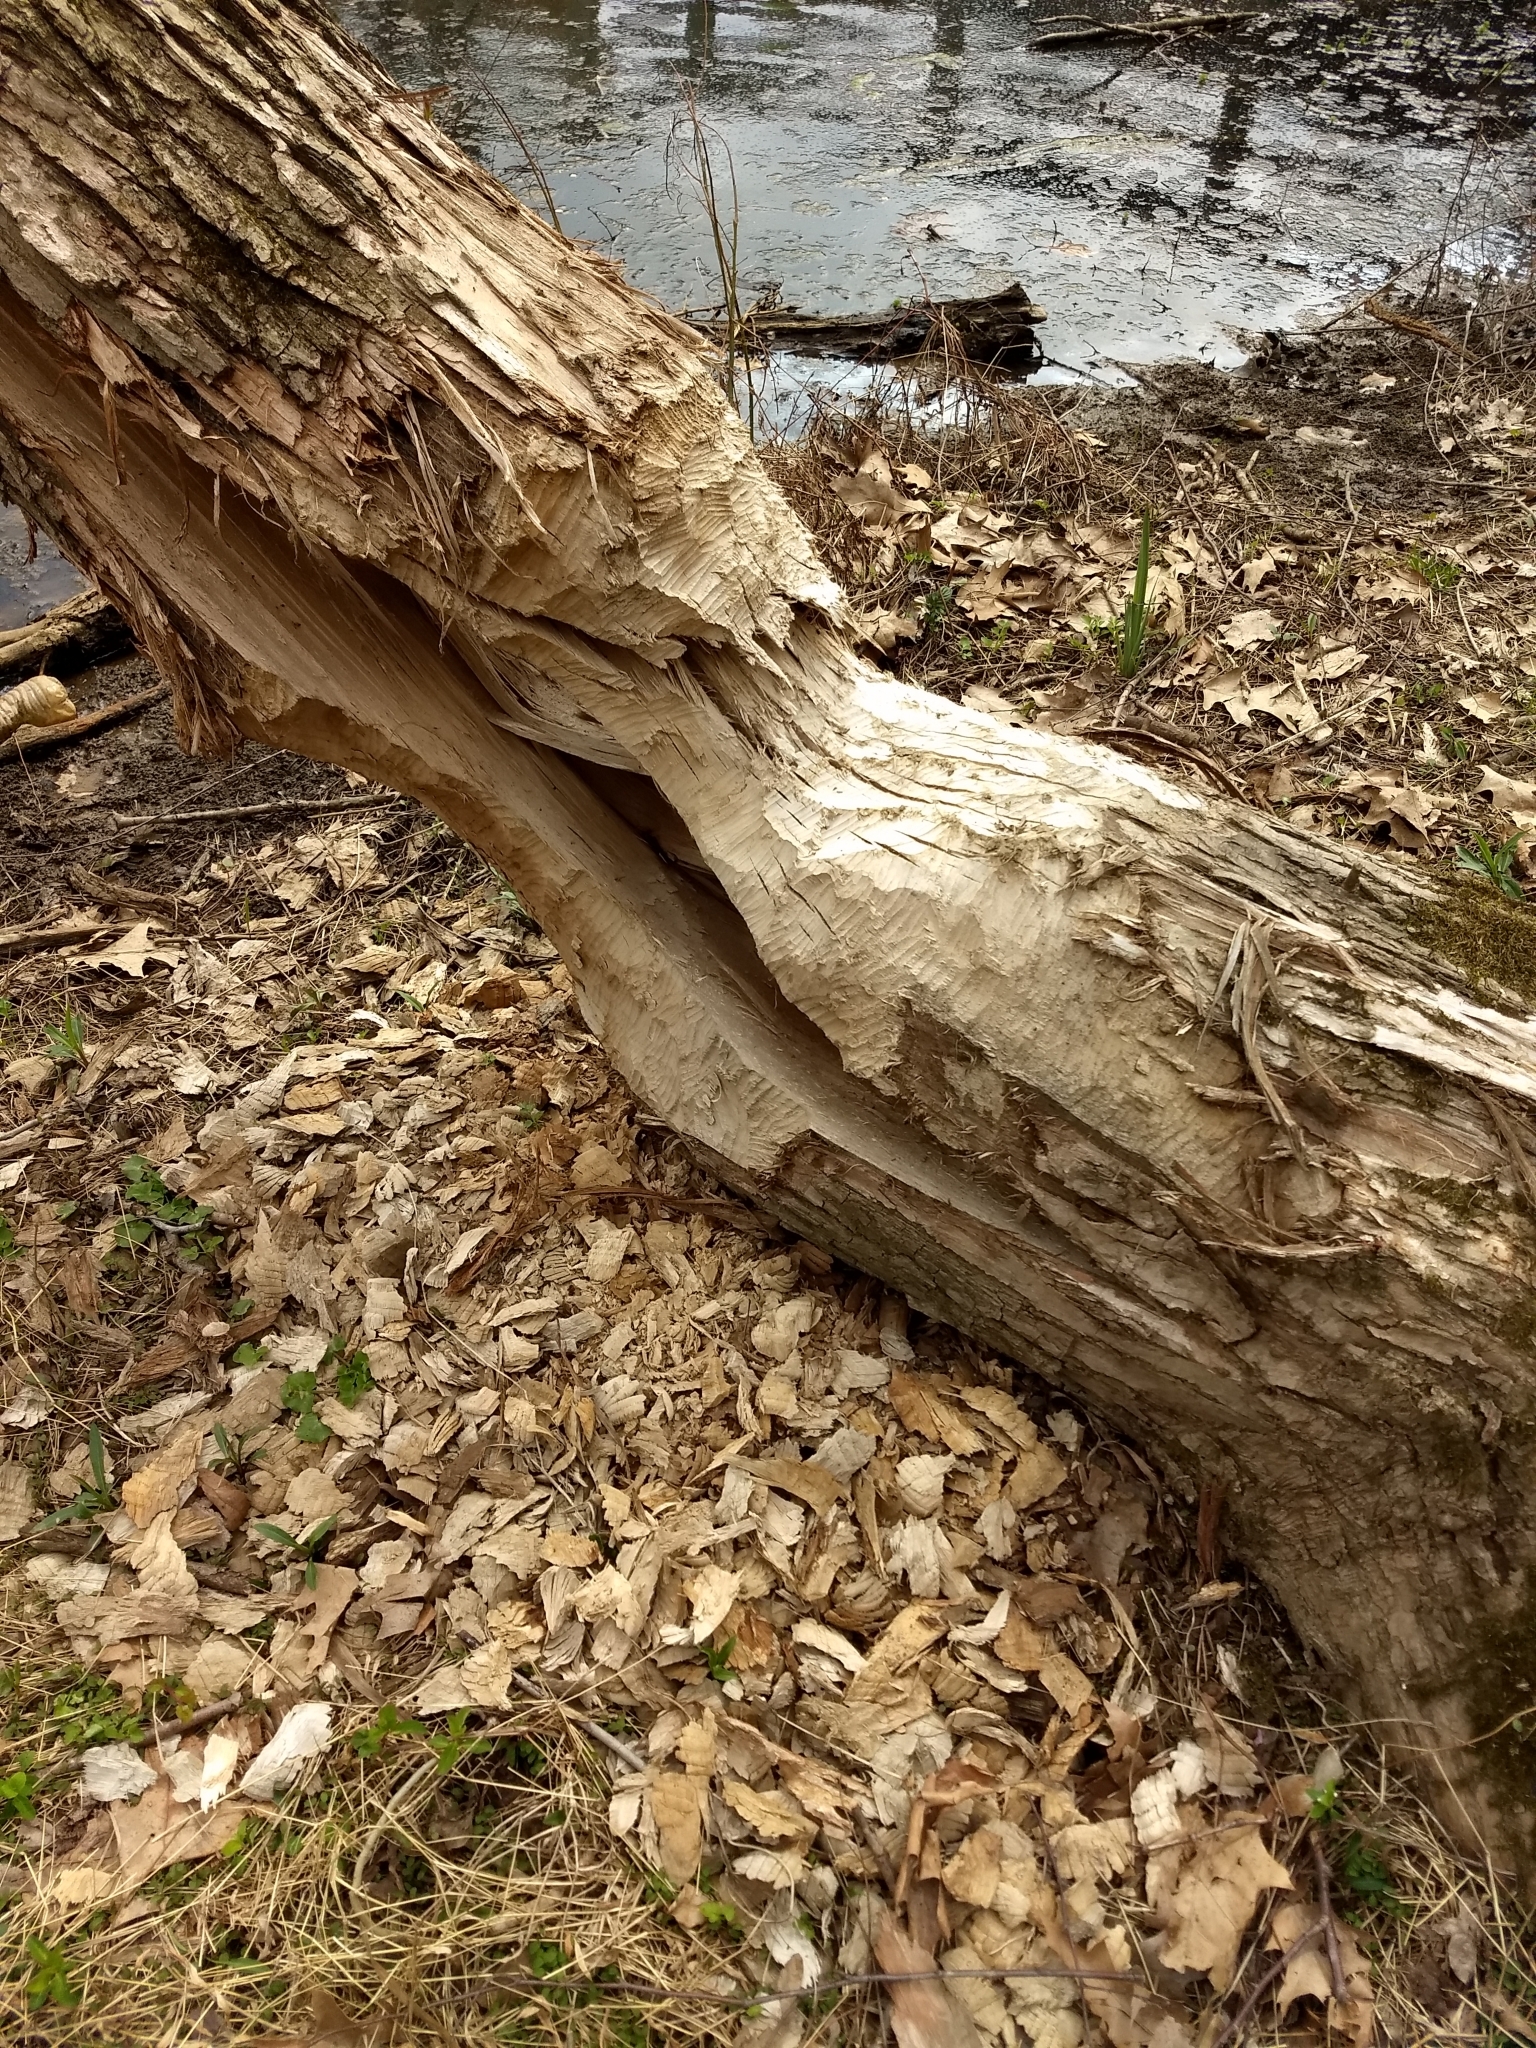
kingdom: Animalia
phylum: Chordata
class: Mammalia
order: Rodentia
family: Castoridae
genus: Castor
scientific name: Castor canadensis
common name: American beaver
